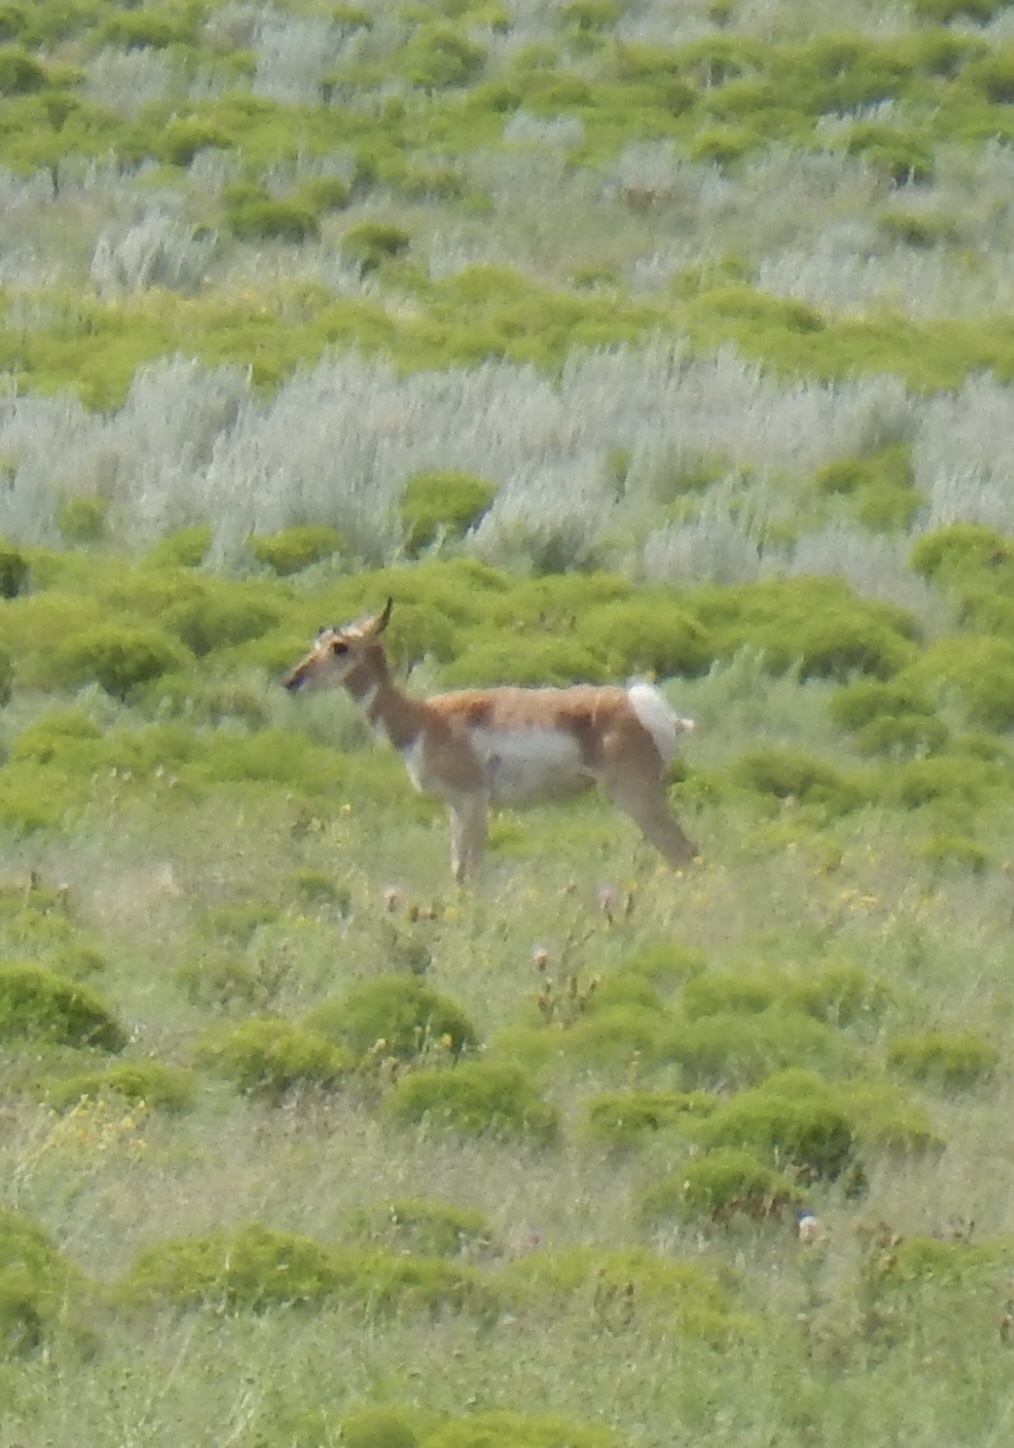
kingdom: Animalia
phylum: Chordata
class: Mammalia
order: Artiodactyla
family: Antilocapridae
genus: Antilocapra
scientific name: Antilocapra americana
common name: Pronghorn
